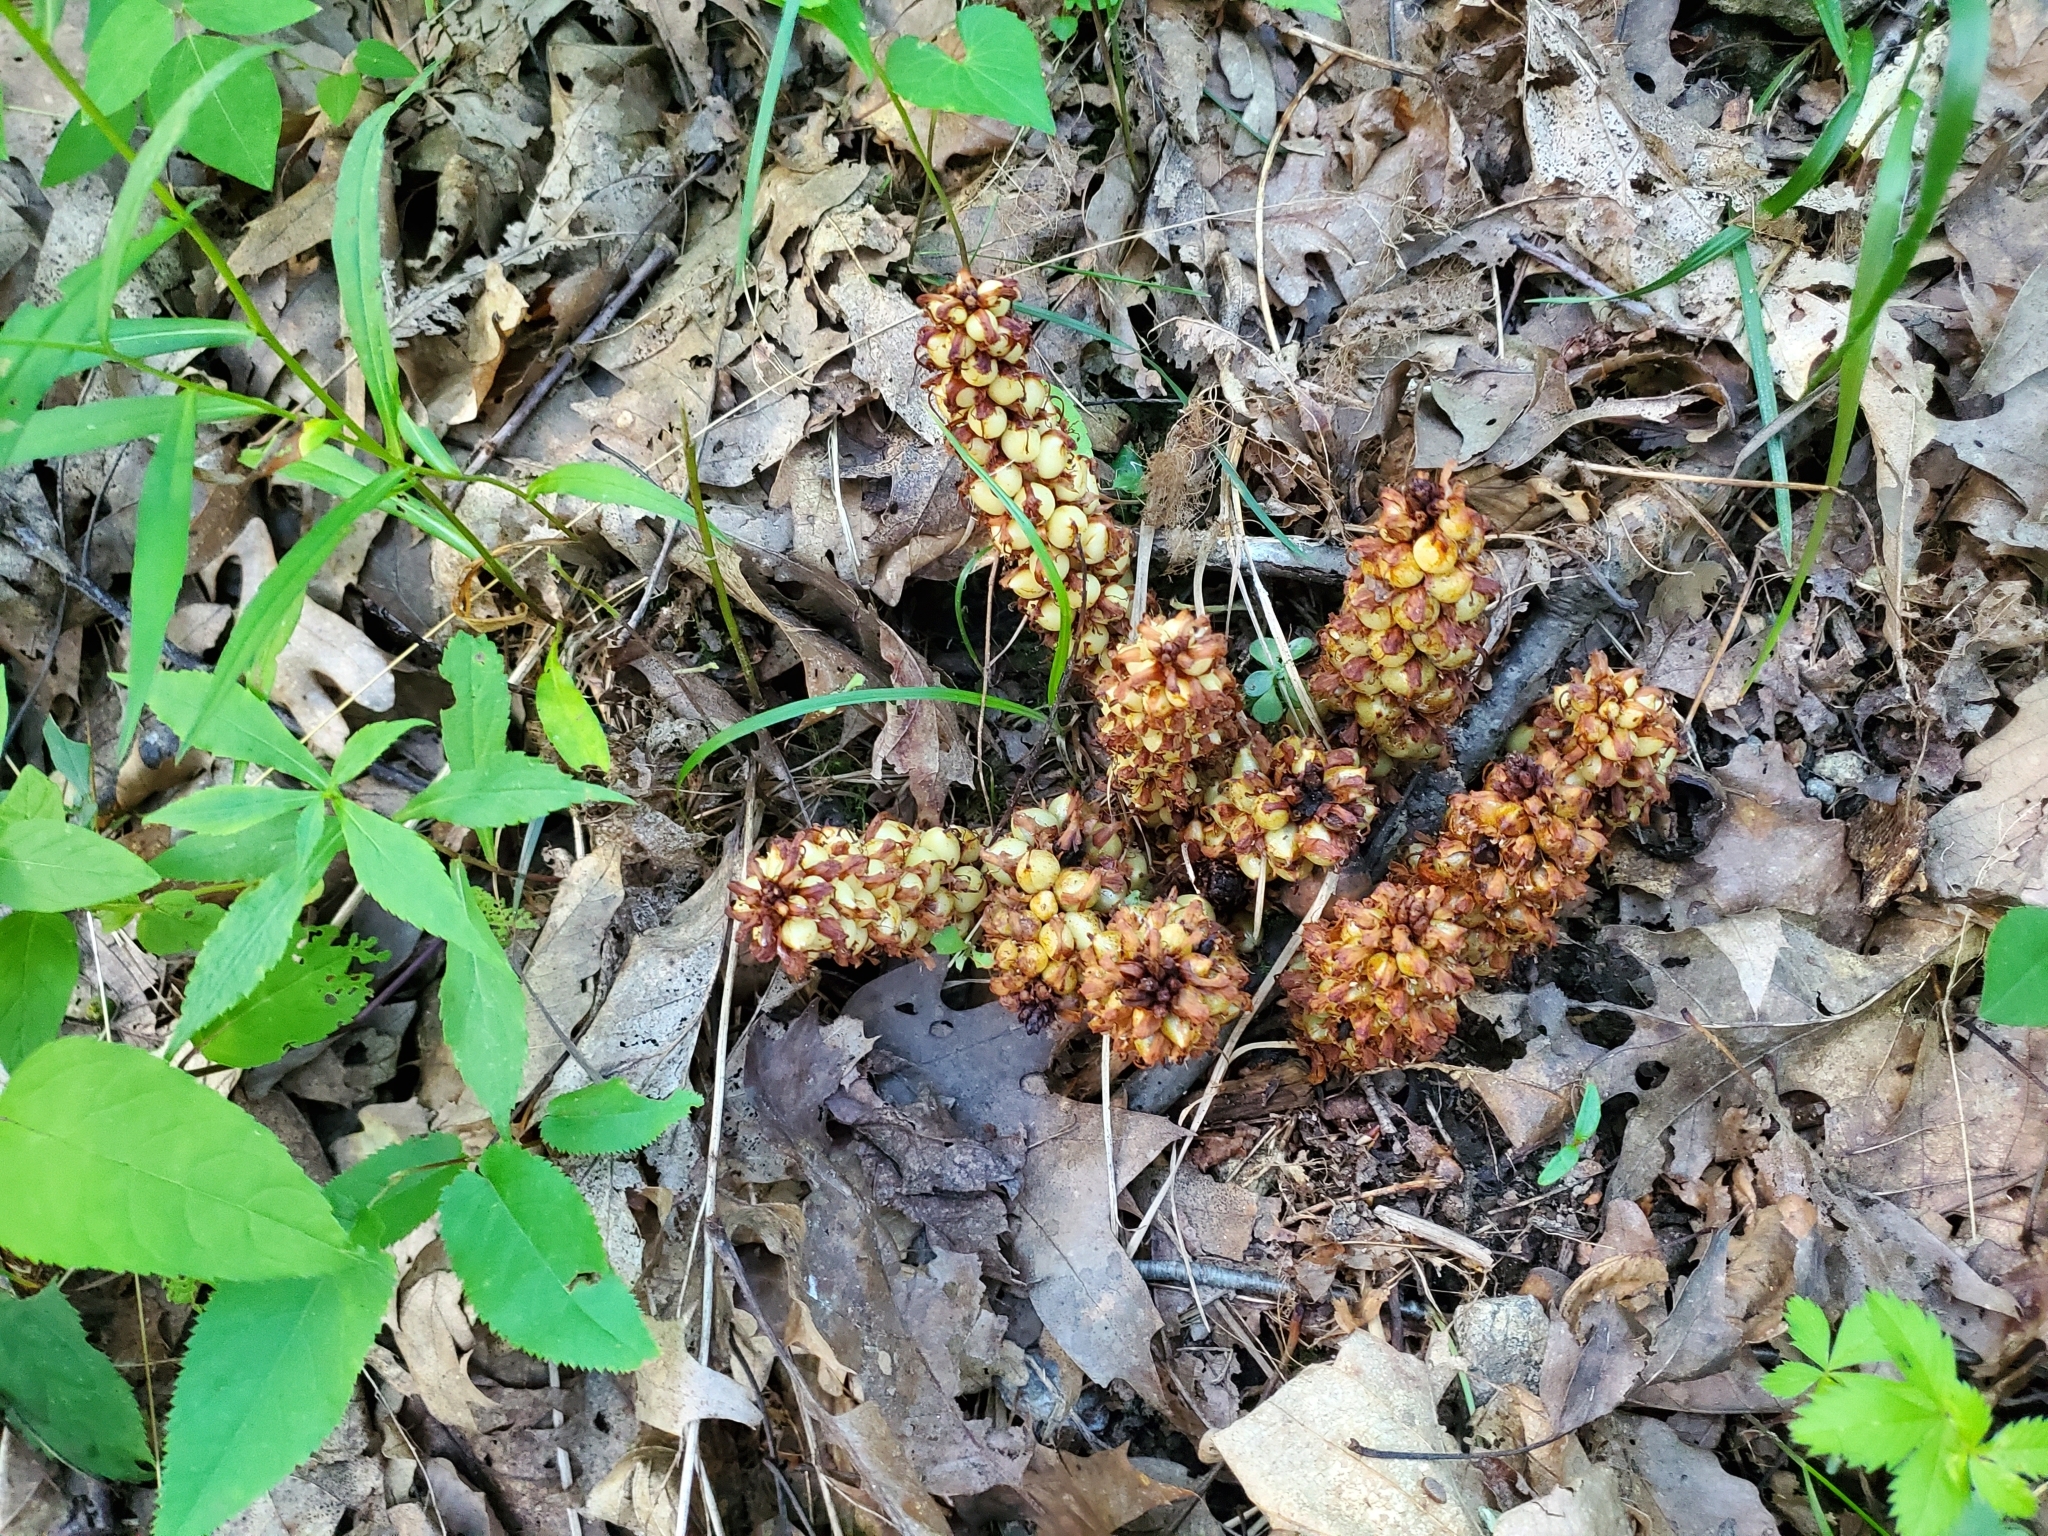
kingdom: Plantae
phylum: Tracheophyta
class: Magnoliopsida
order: Lamiales
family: Orobanchaceae
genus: Conopholis
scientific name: Conopholis americana
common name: American cancer-root
